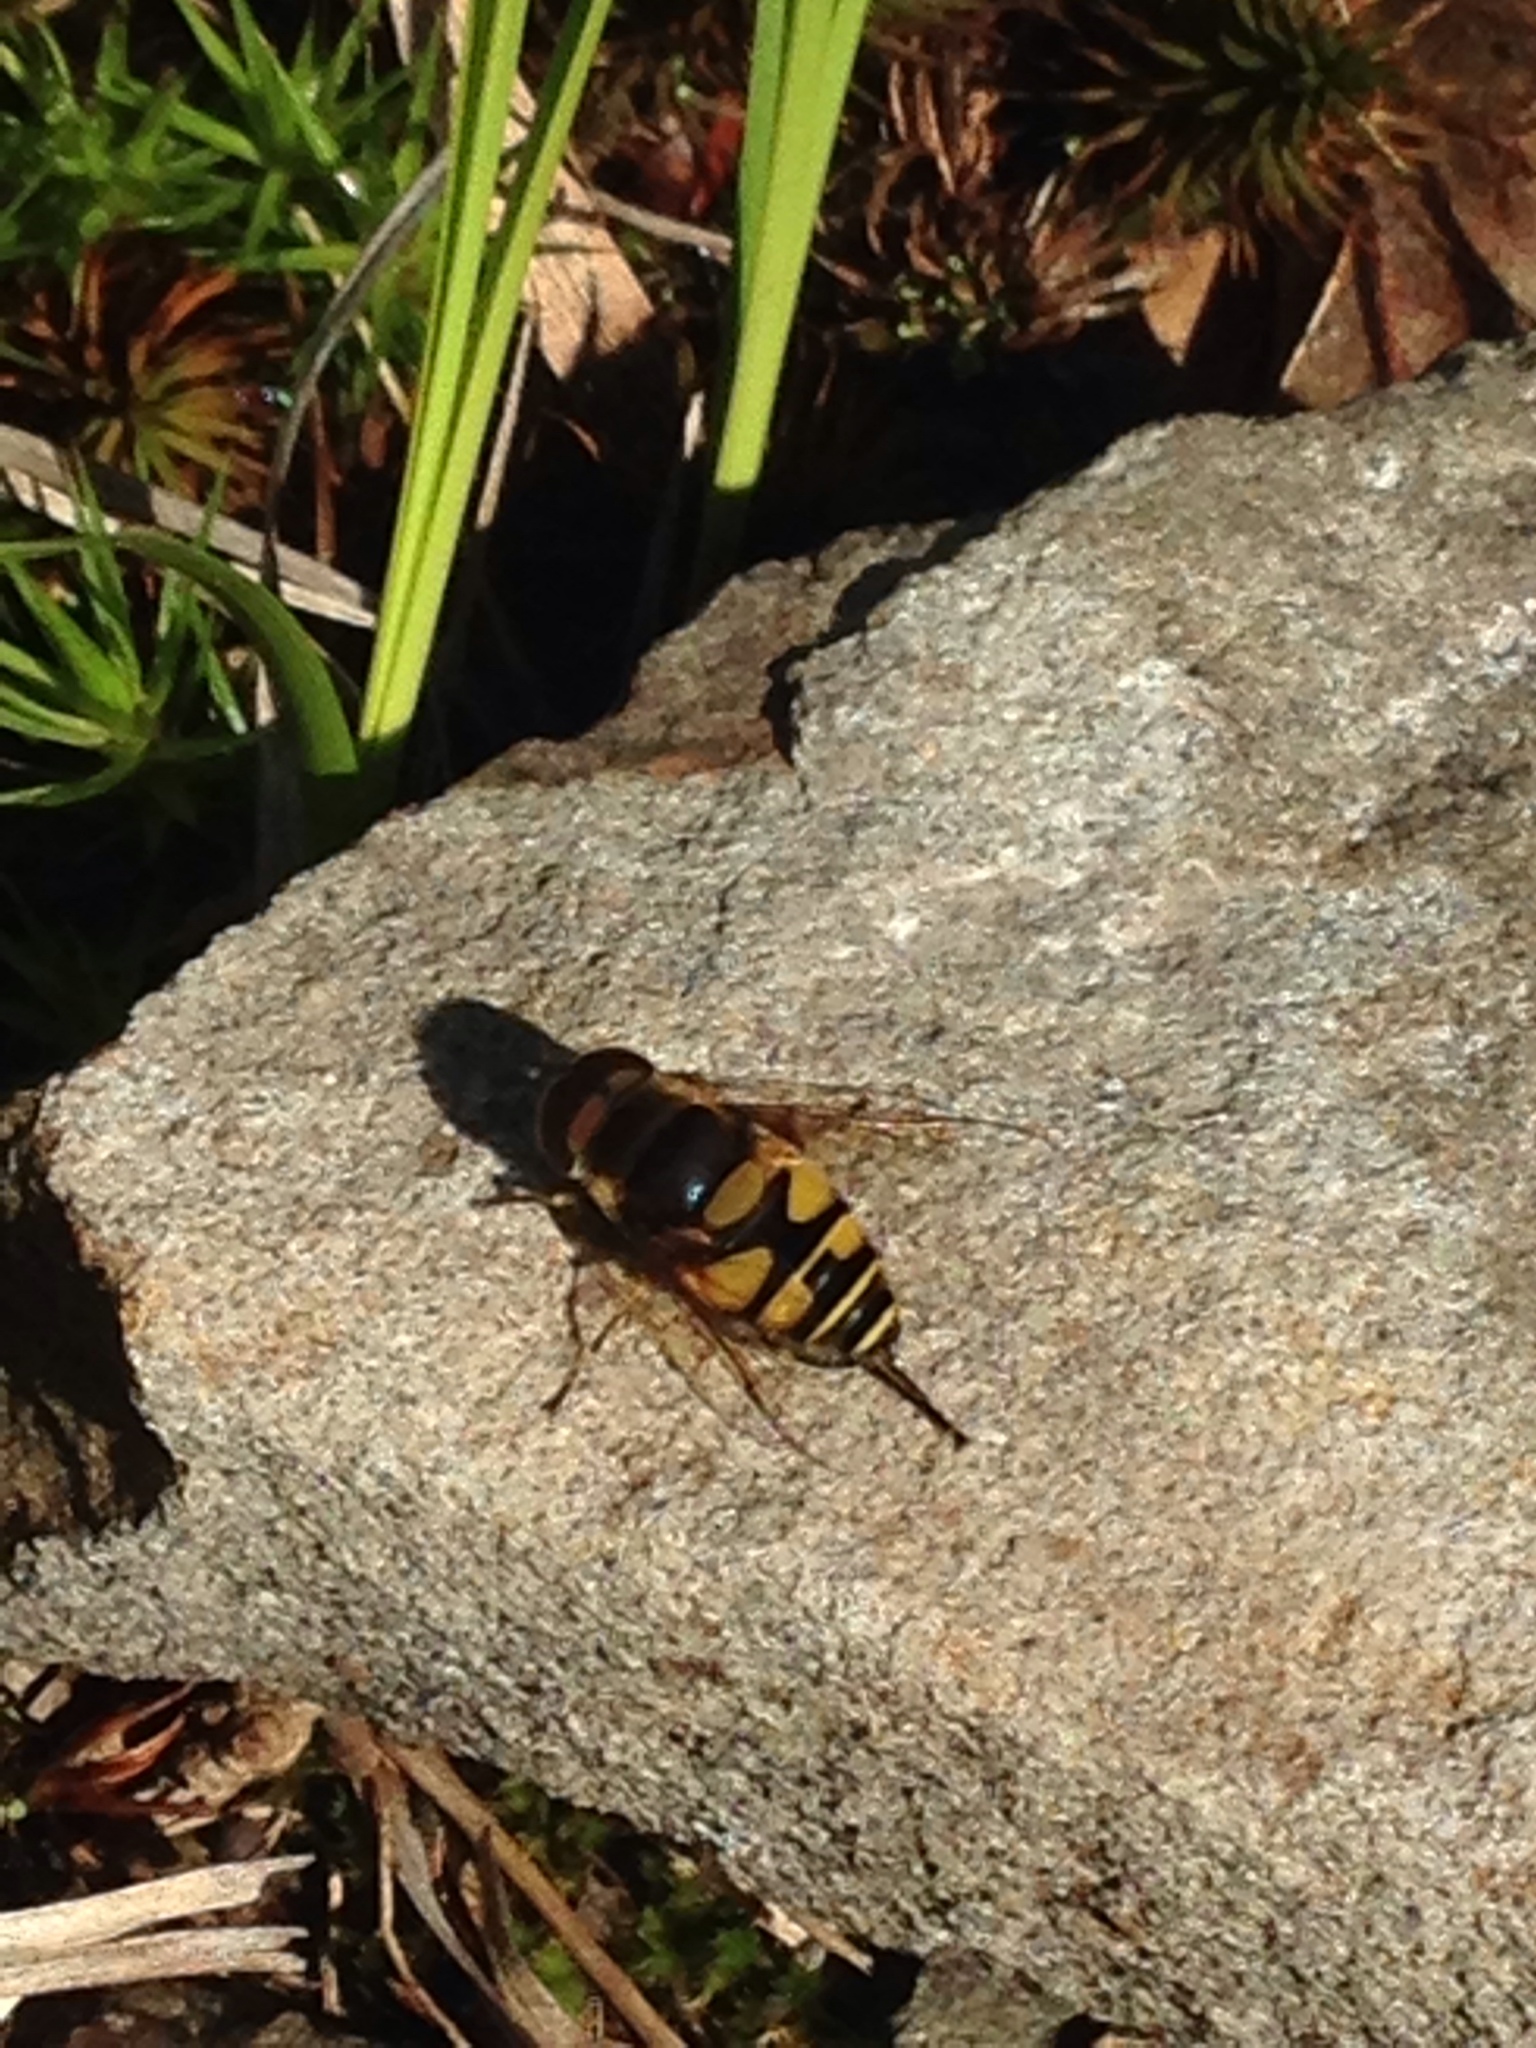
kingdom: Animalia
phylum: Arthropoda
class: Insecta
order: Diptera
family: Syrphidae
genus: Eristalis
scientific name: Eristalis transversa
